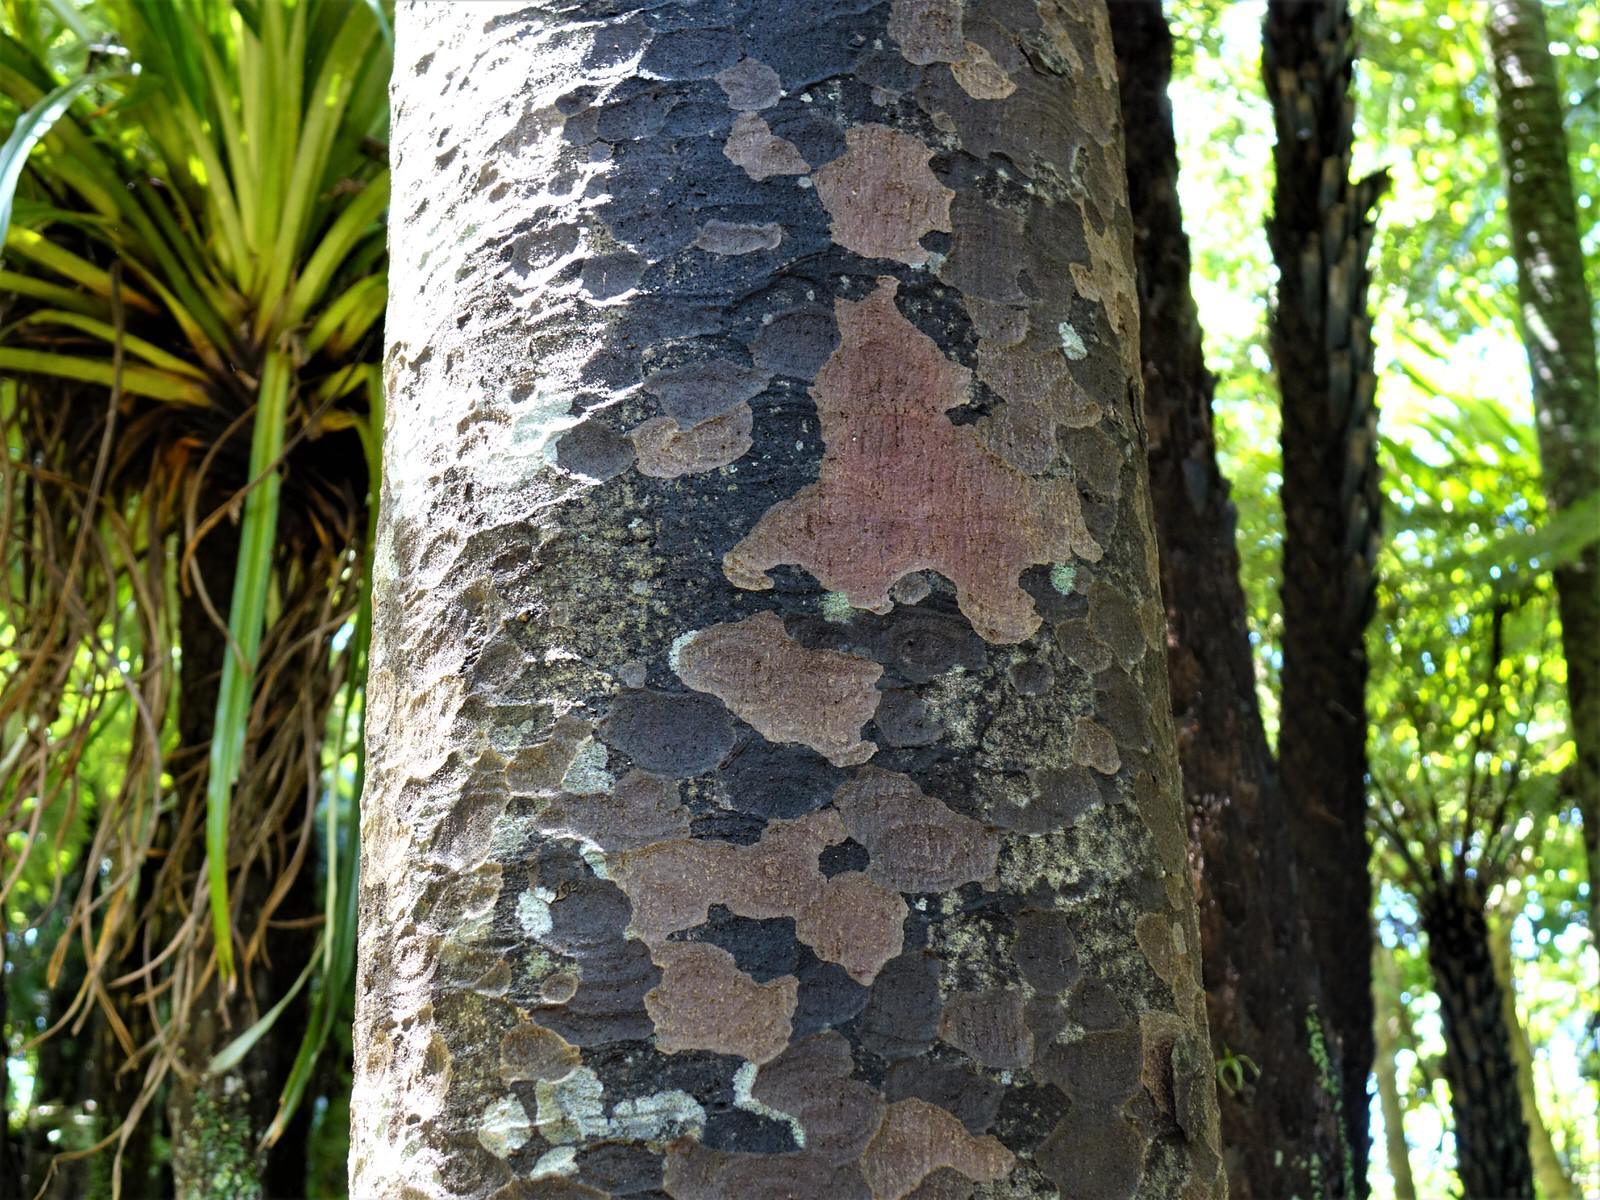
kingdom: Plantae
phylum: Tracheophyta
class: Pinopsida
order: Pinales
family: Podocarpaceae
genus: Prumnopitys
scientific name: Prumnopitys taxifolia
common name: Matai
